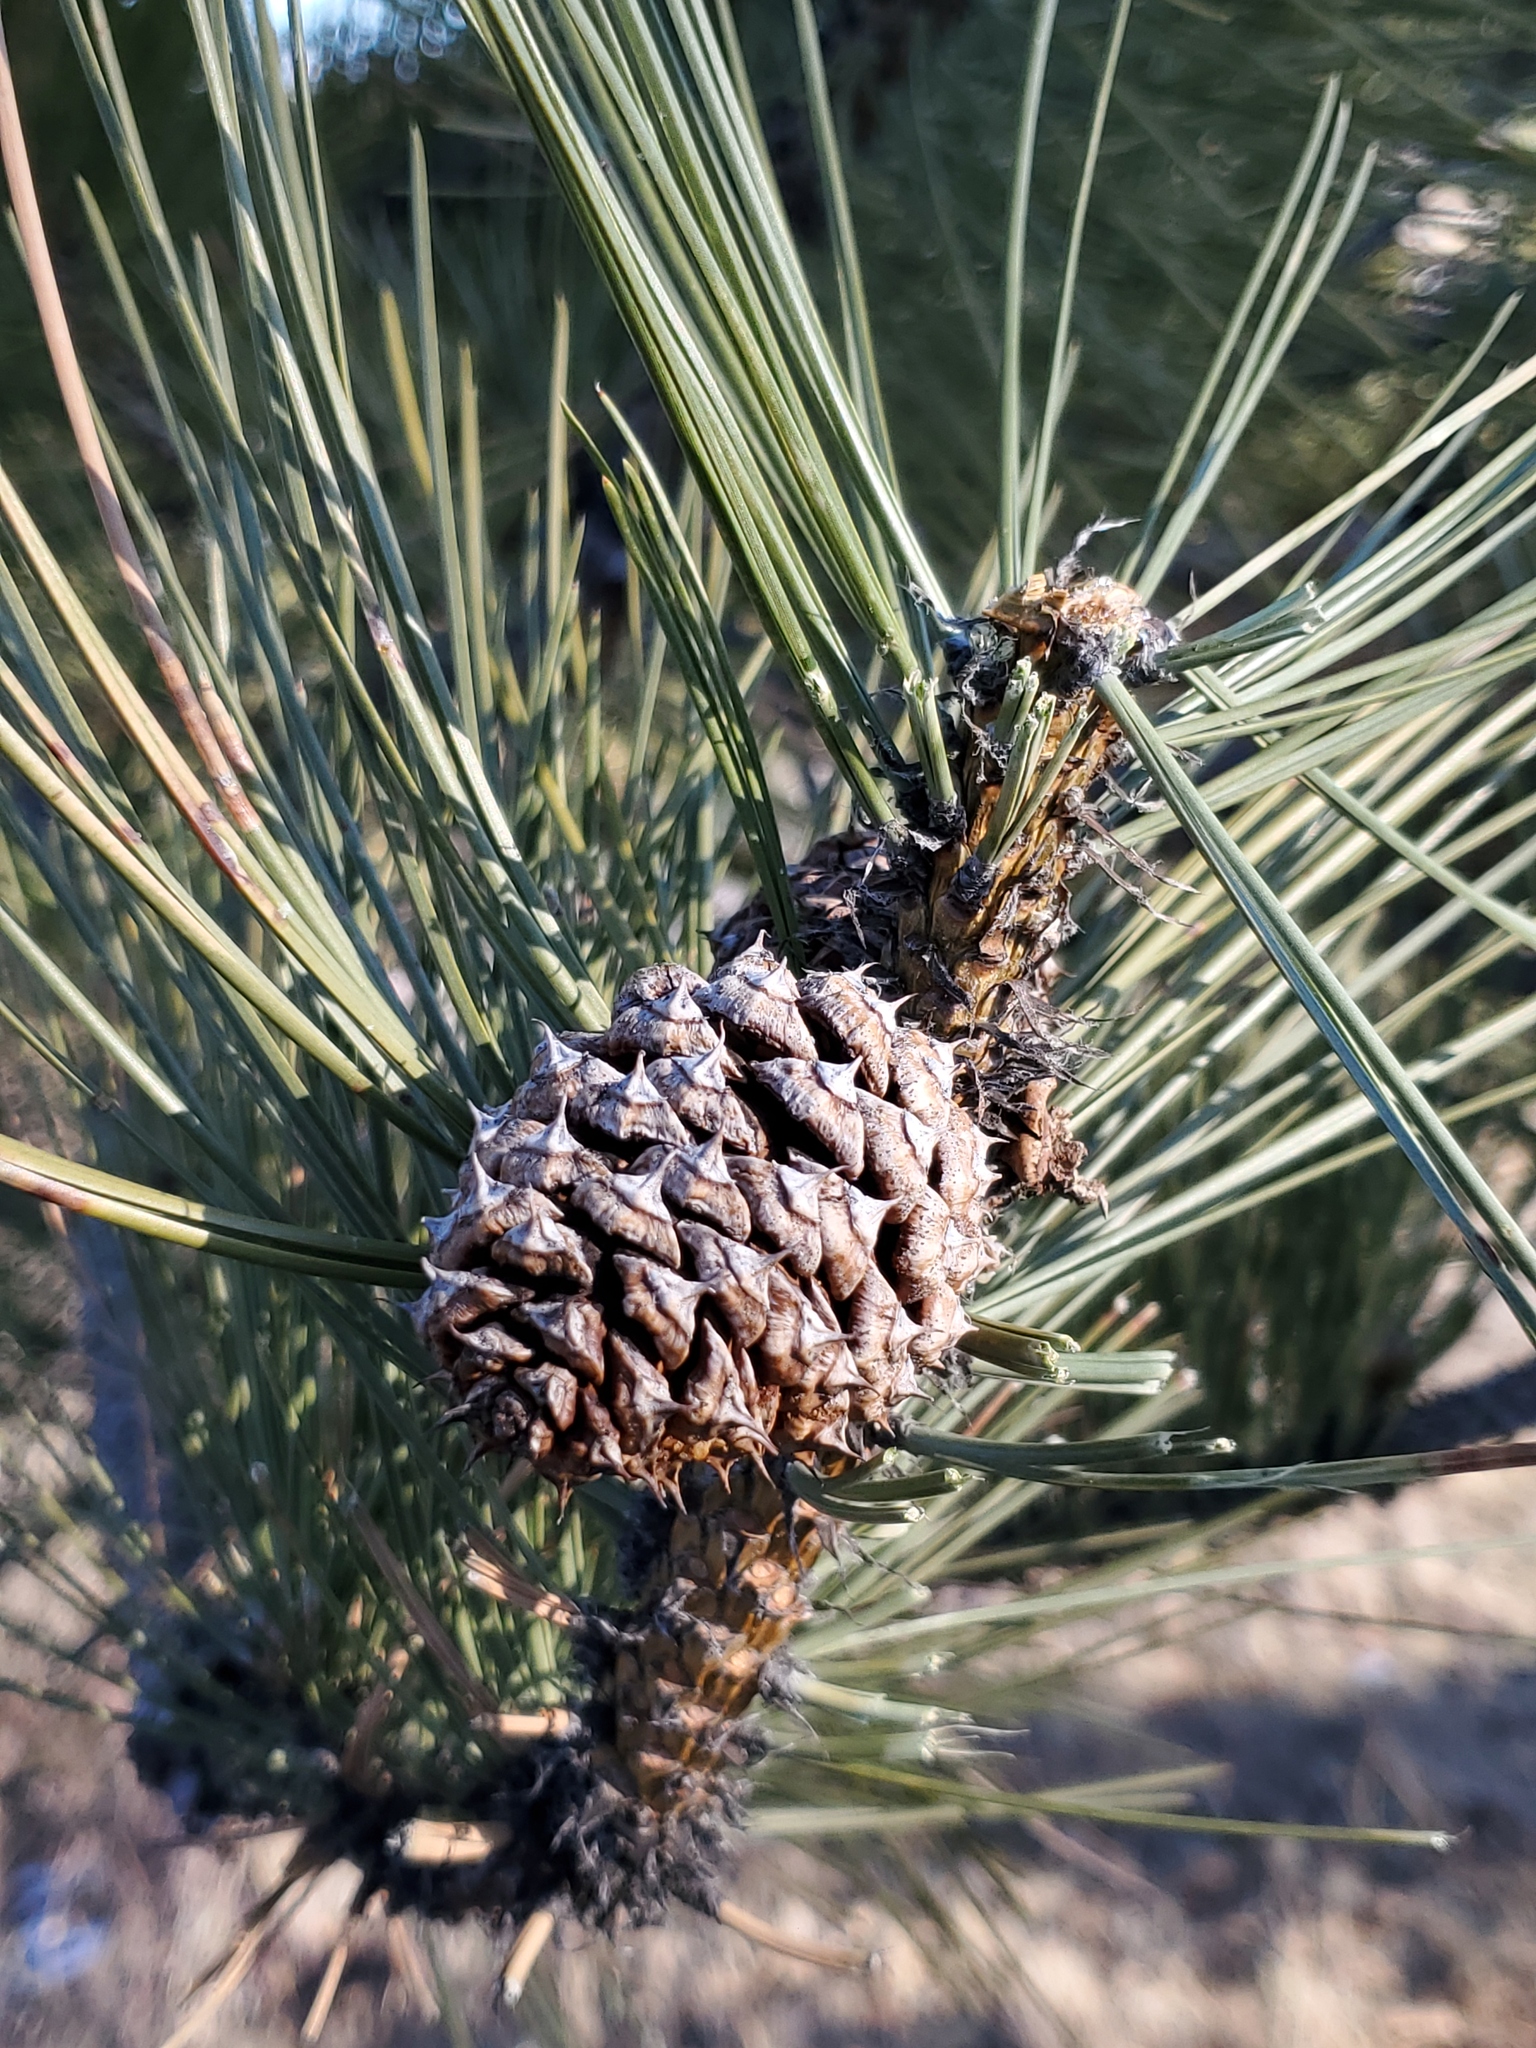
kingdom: Plantae
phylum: Tracheophyta
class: Pinopsida
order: Pinales
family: Pinaceae
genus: Pinus
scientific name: Pinus ponderosa
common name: Western yellow-pine
